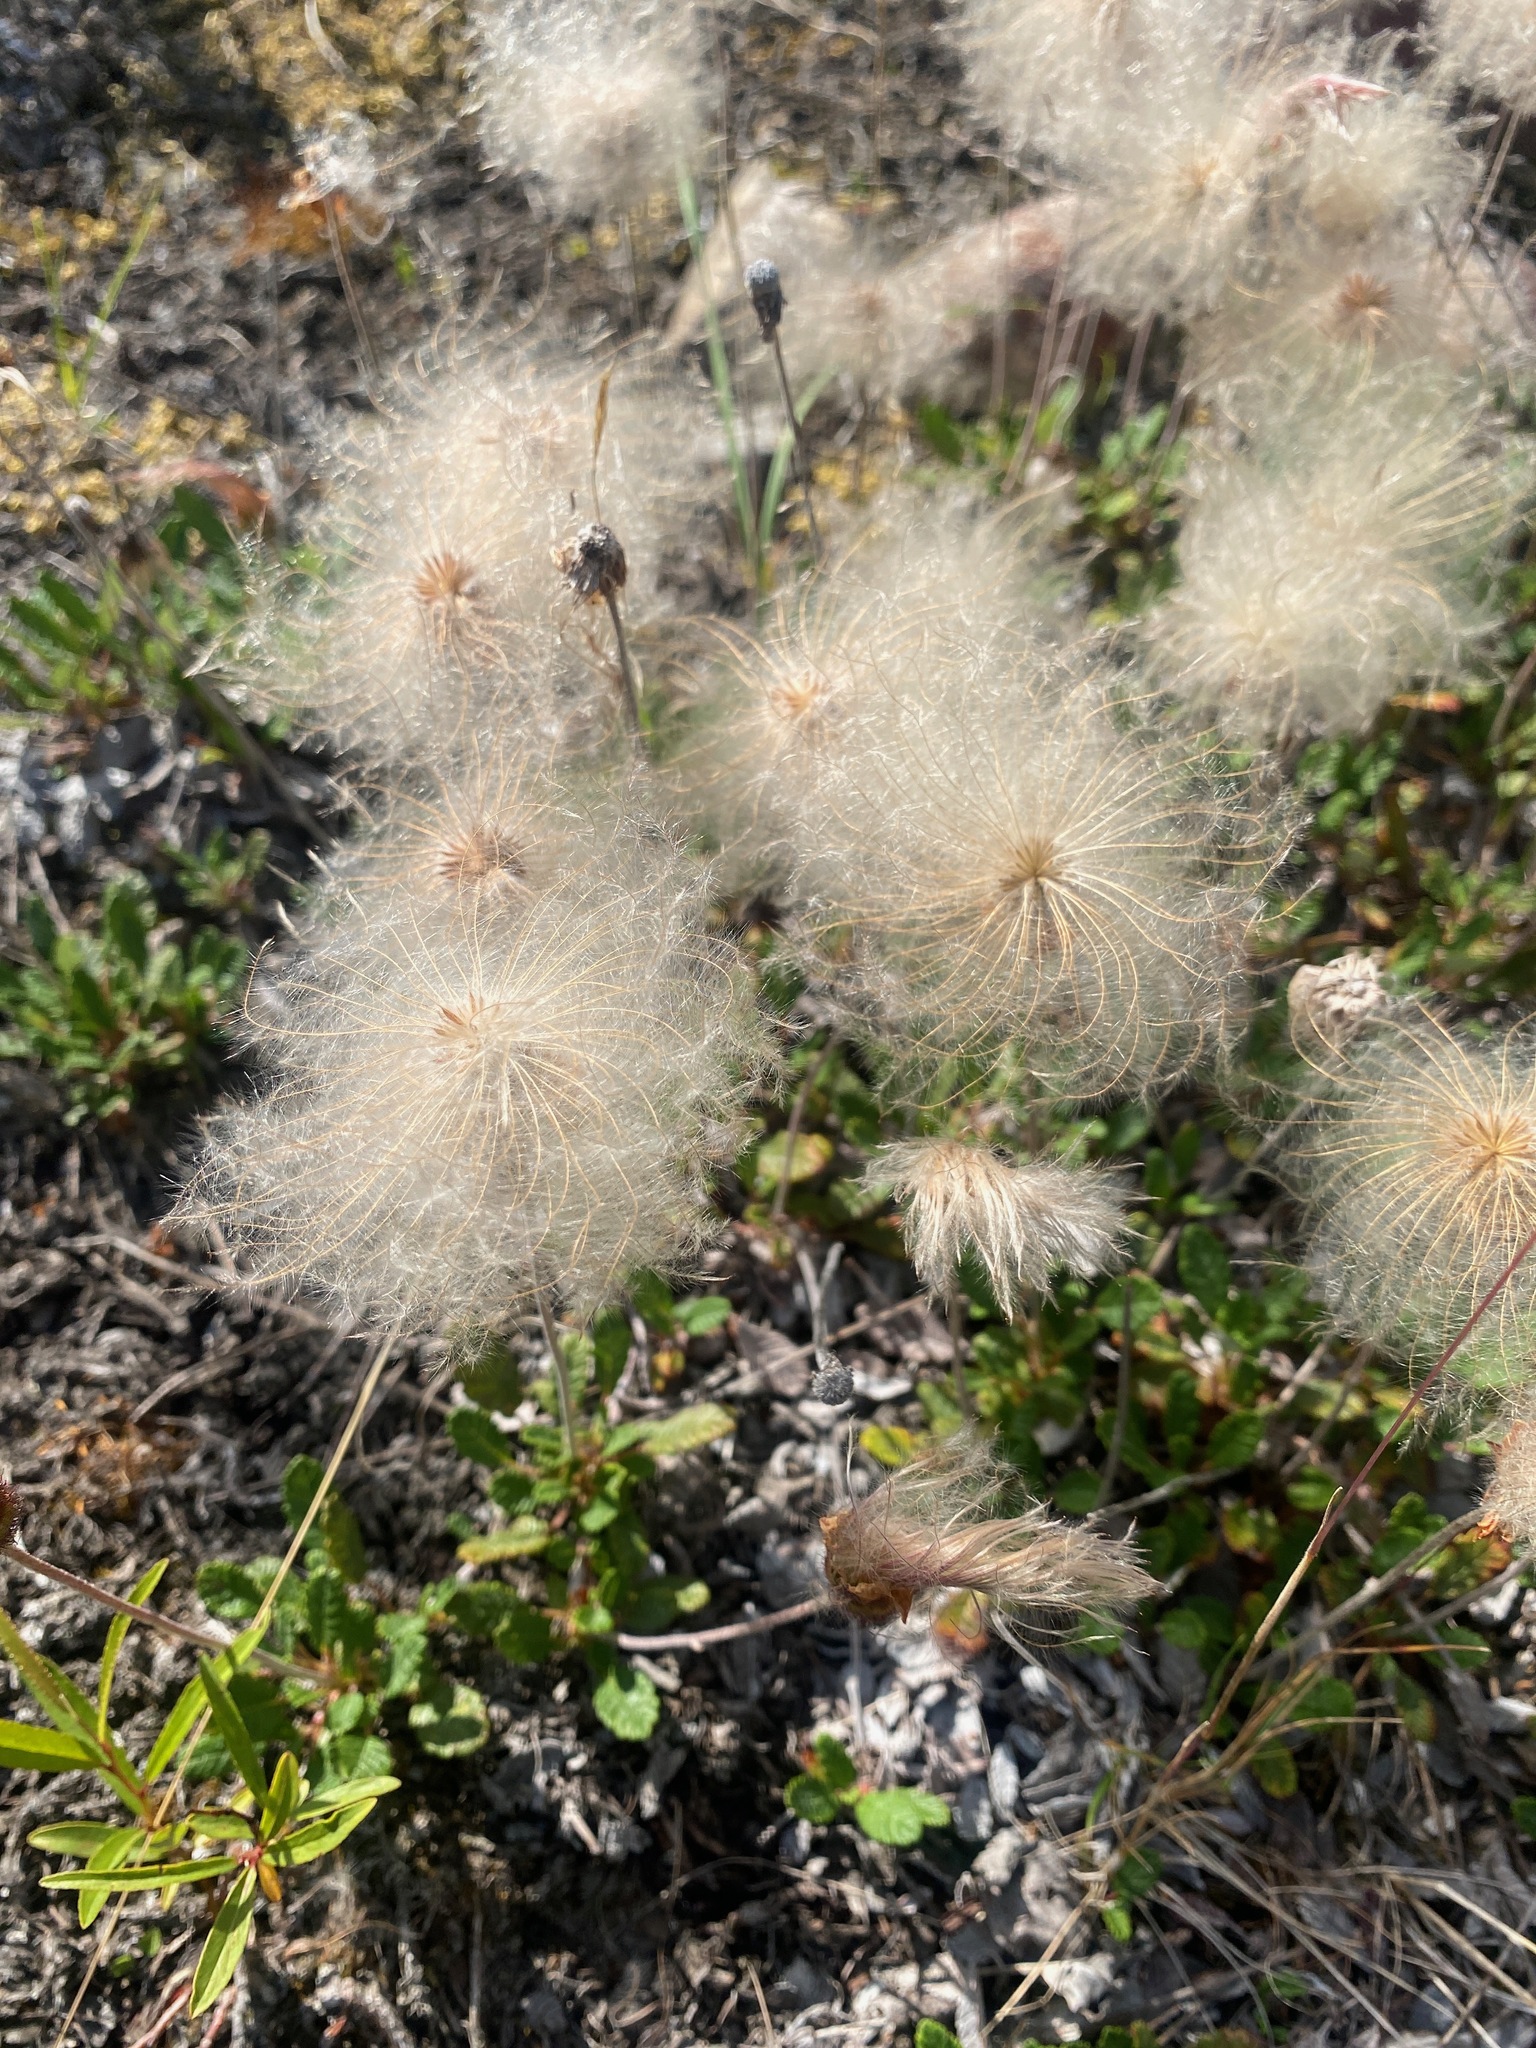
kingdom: Plantae
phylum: Tracheophyta
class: Magnoliopsida
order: Rosales
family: Rosaceae
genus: Dryas
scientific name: Dryas drummondii
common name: Drummond's dryad
